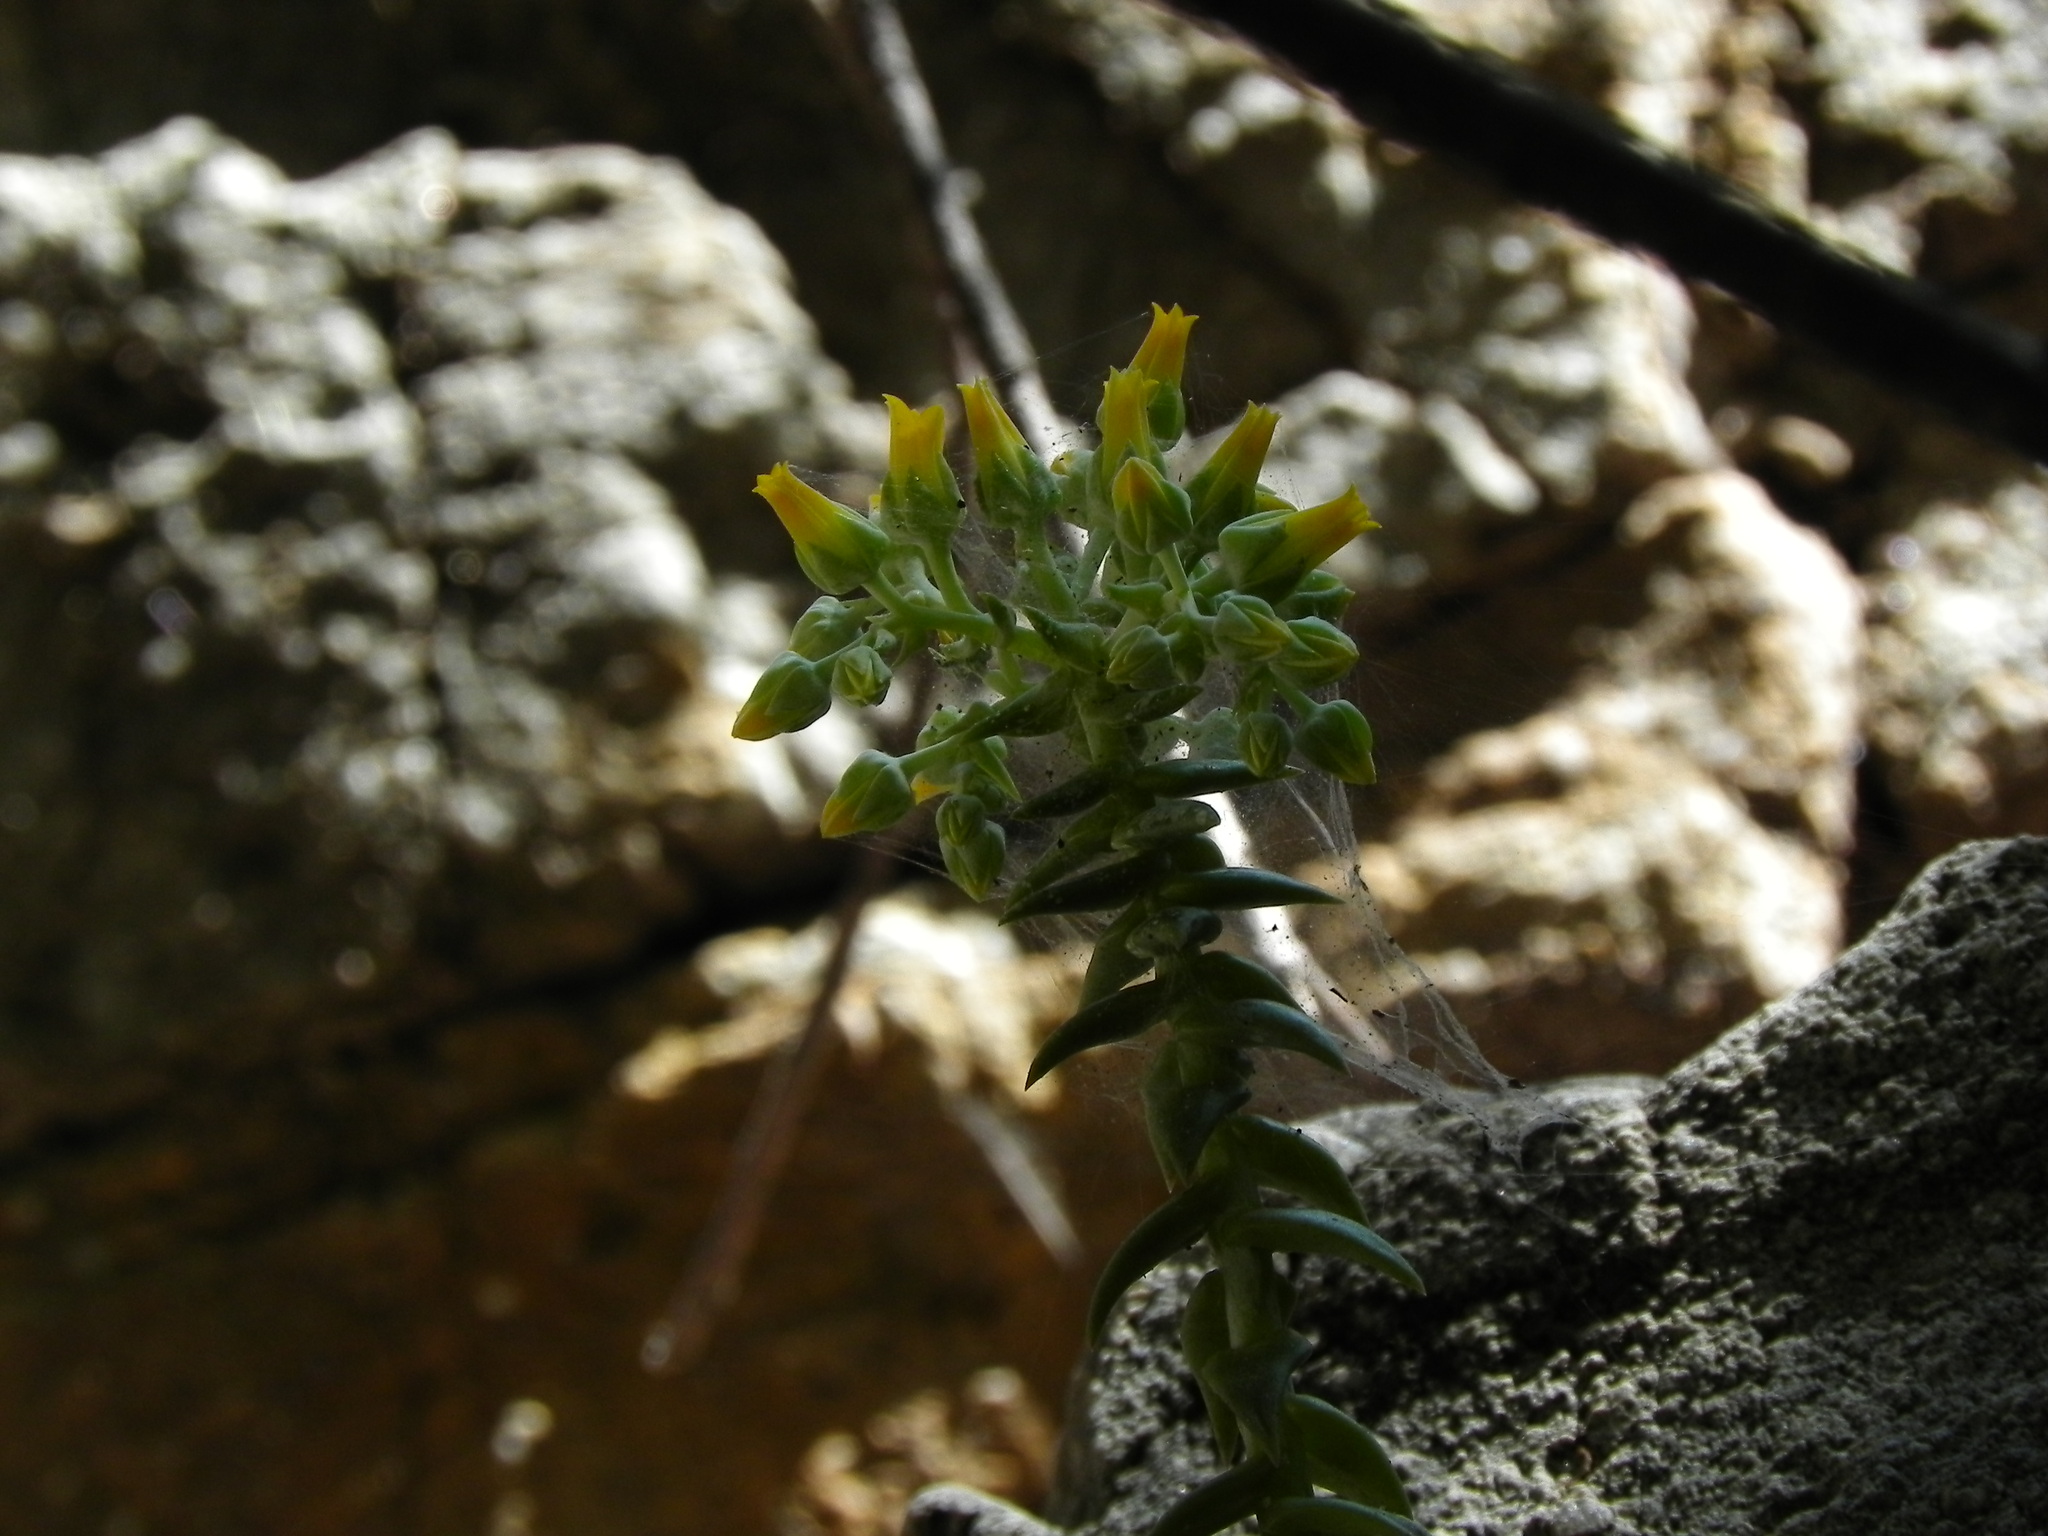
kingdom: Plantae
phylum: Tracheophyta
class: Magnoliopsida
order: Saxifragales
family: Crassulaceae
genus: Dudleya
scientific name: Dudleya cymosa
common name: Canyon dudleya
